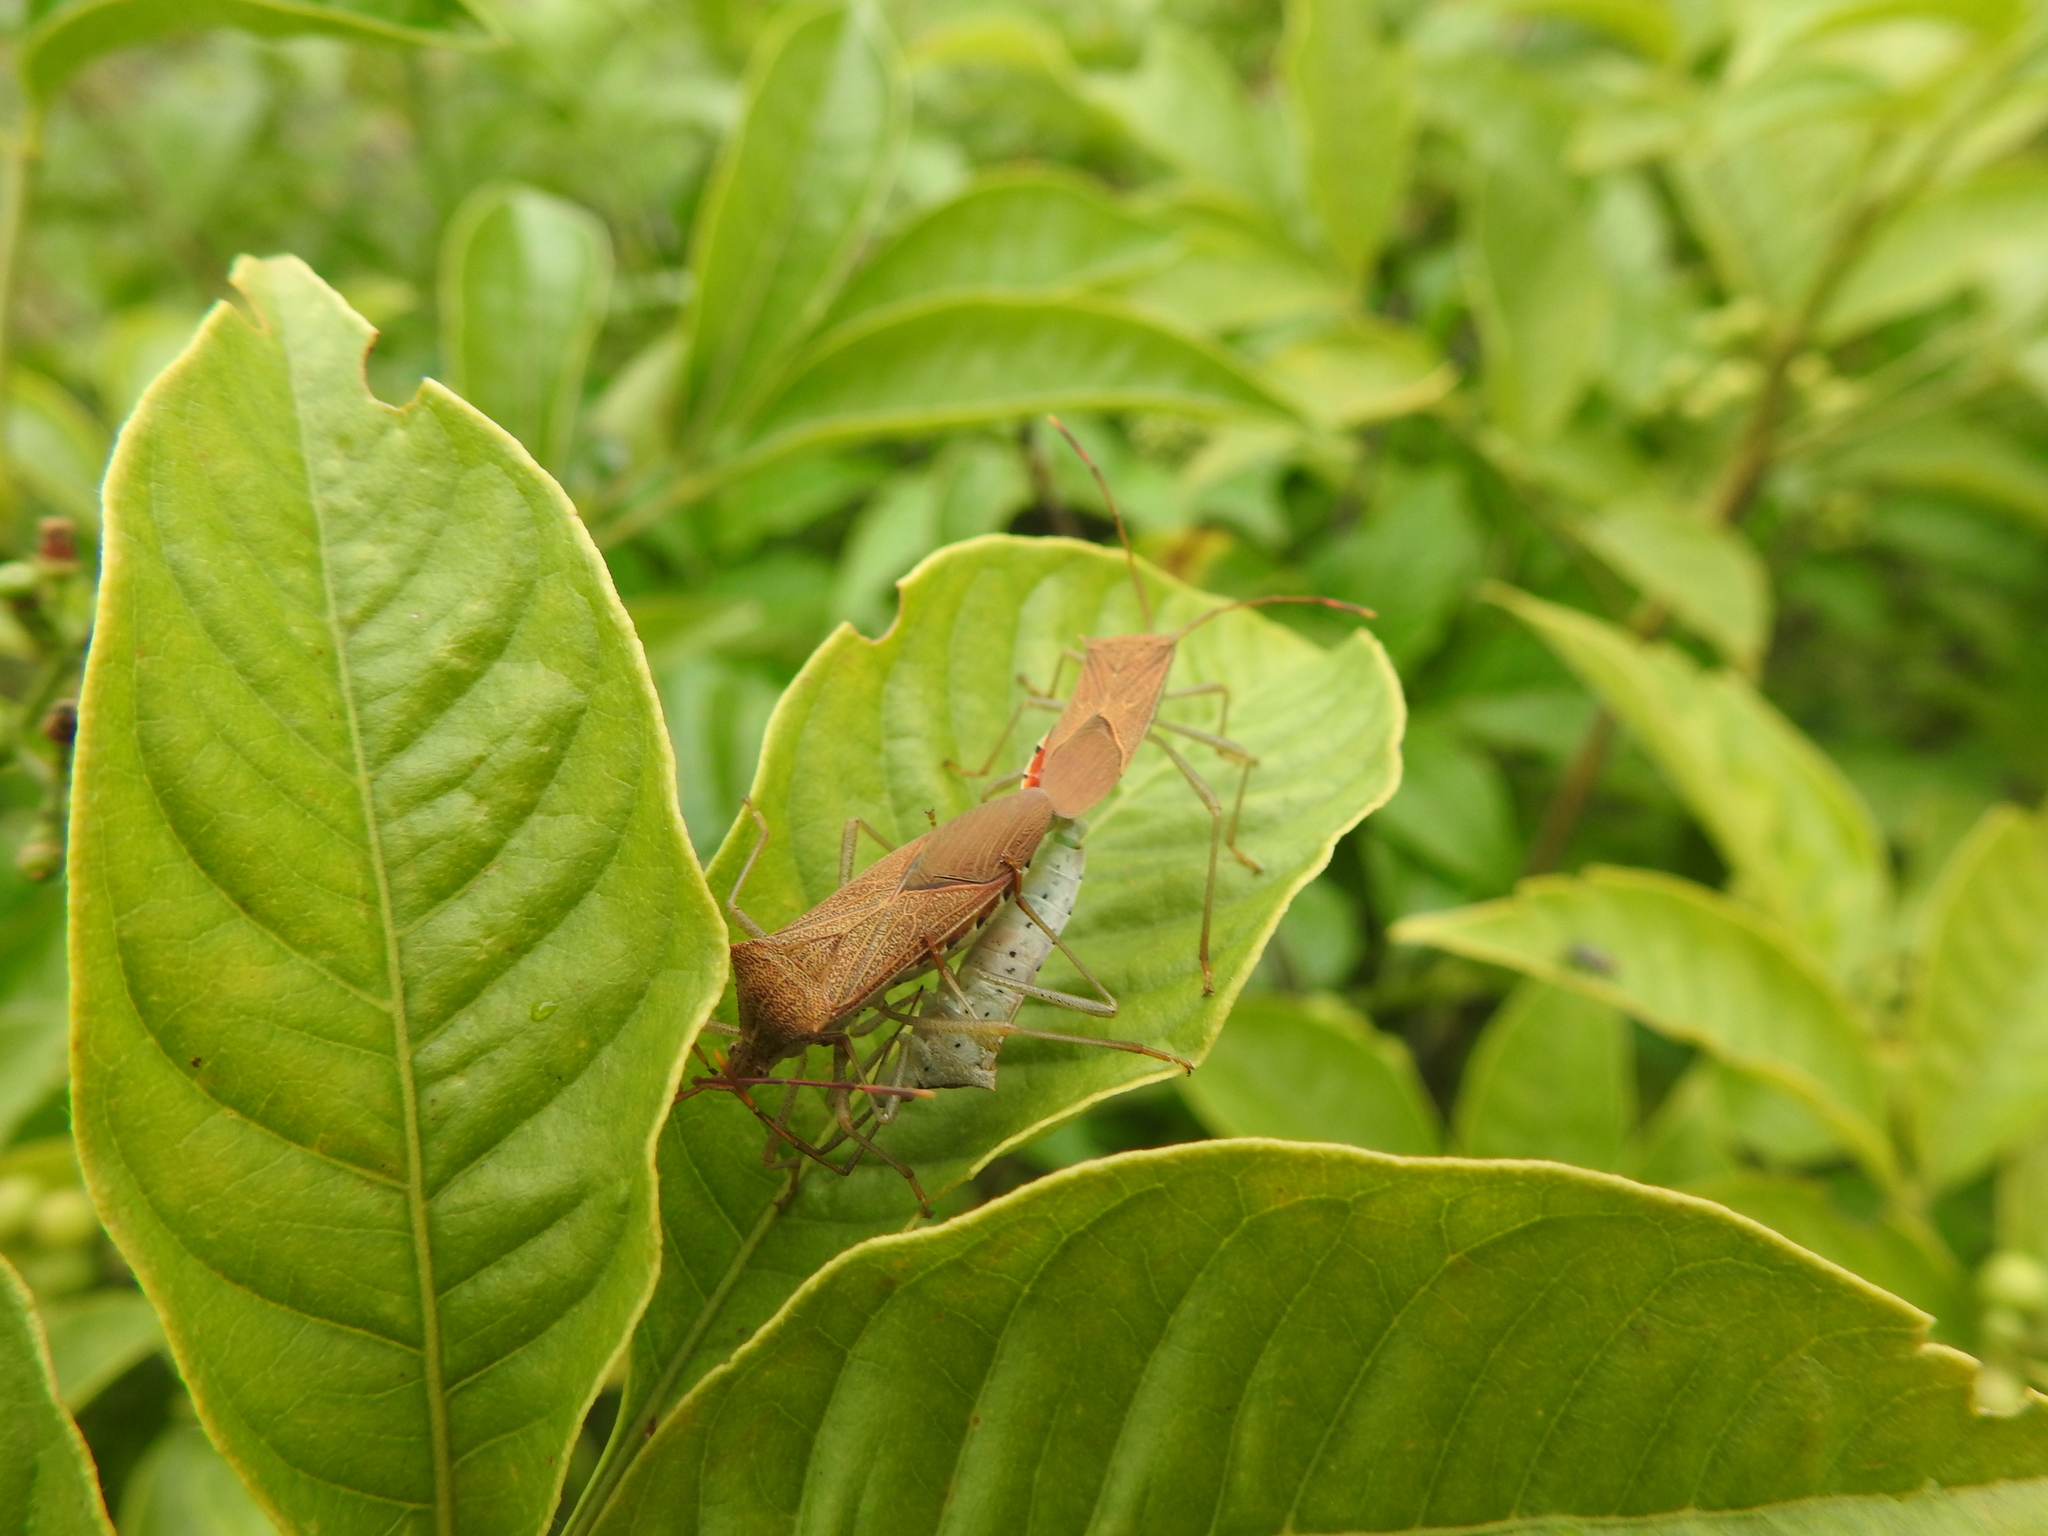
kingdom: Animalia
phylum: Arthropoda
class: Insecta
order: Hemiptera
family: Coreidae
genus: Plinachtus
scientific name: Plinachtus basalis
